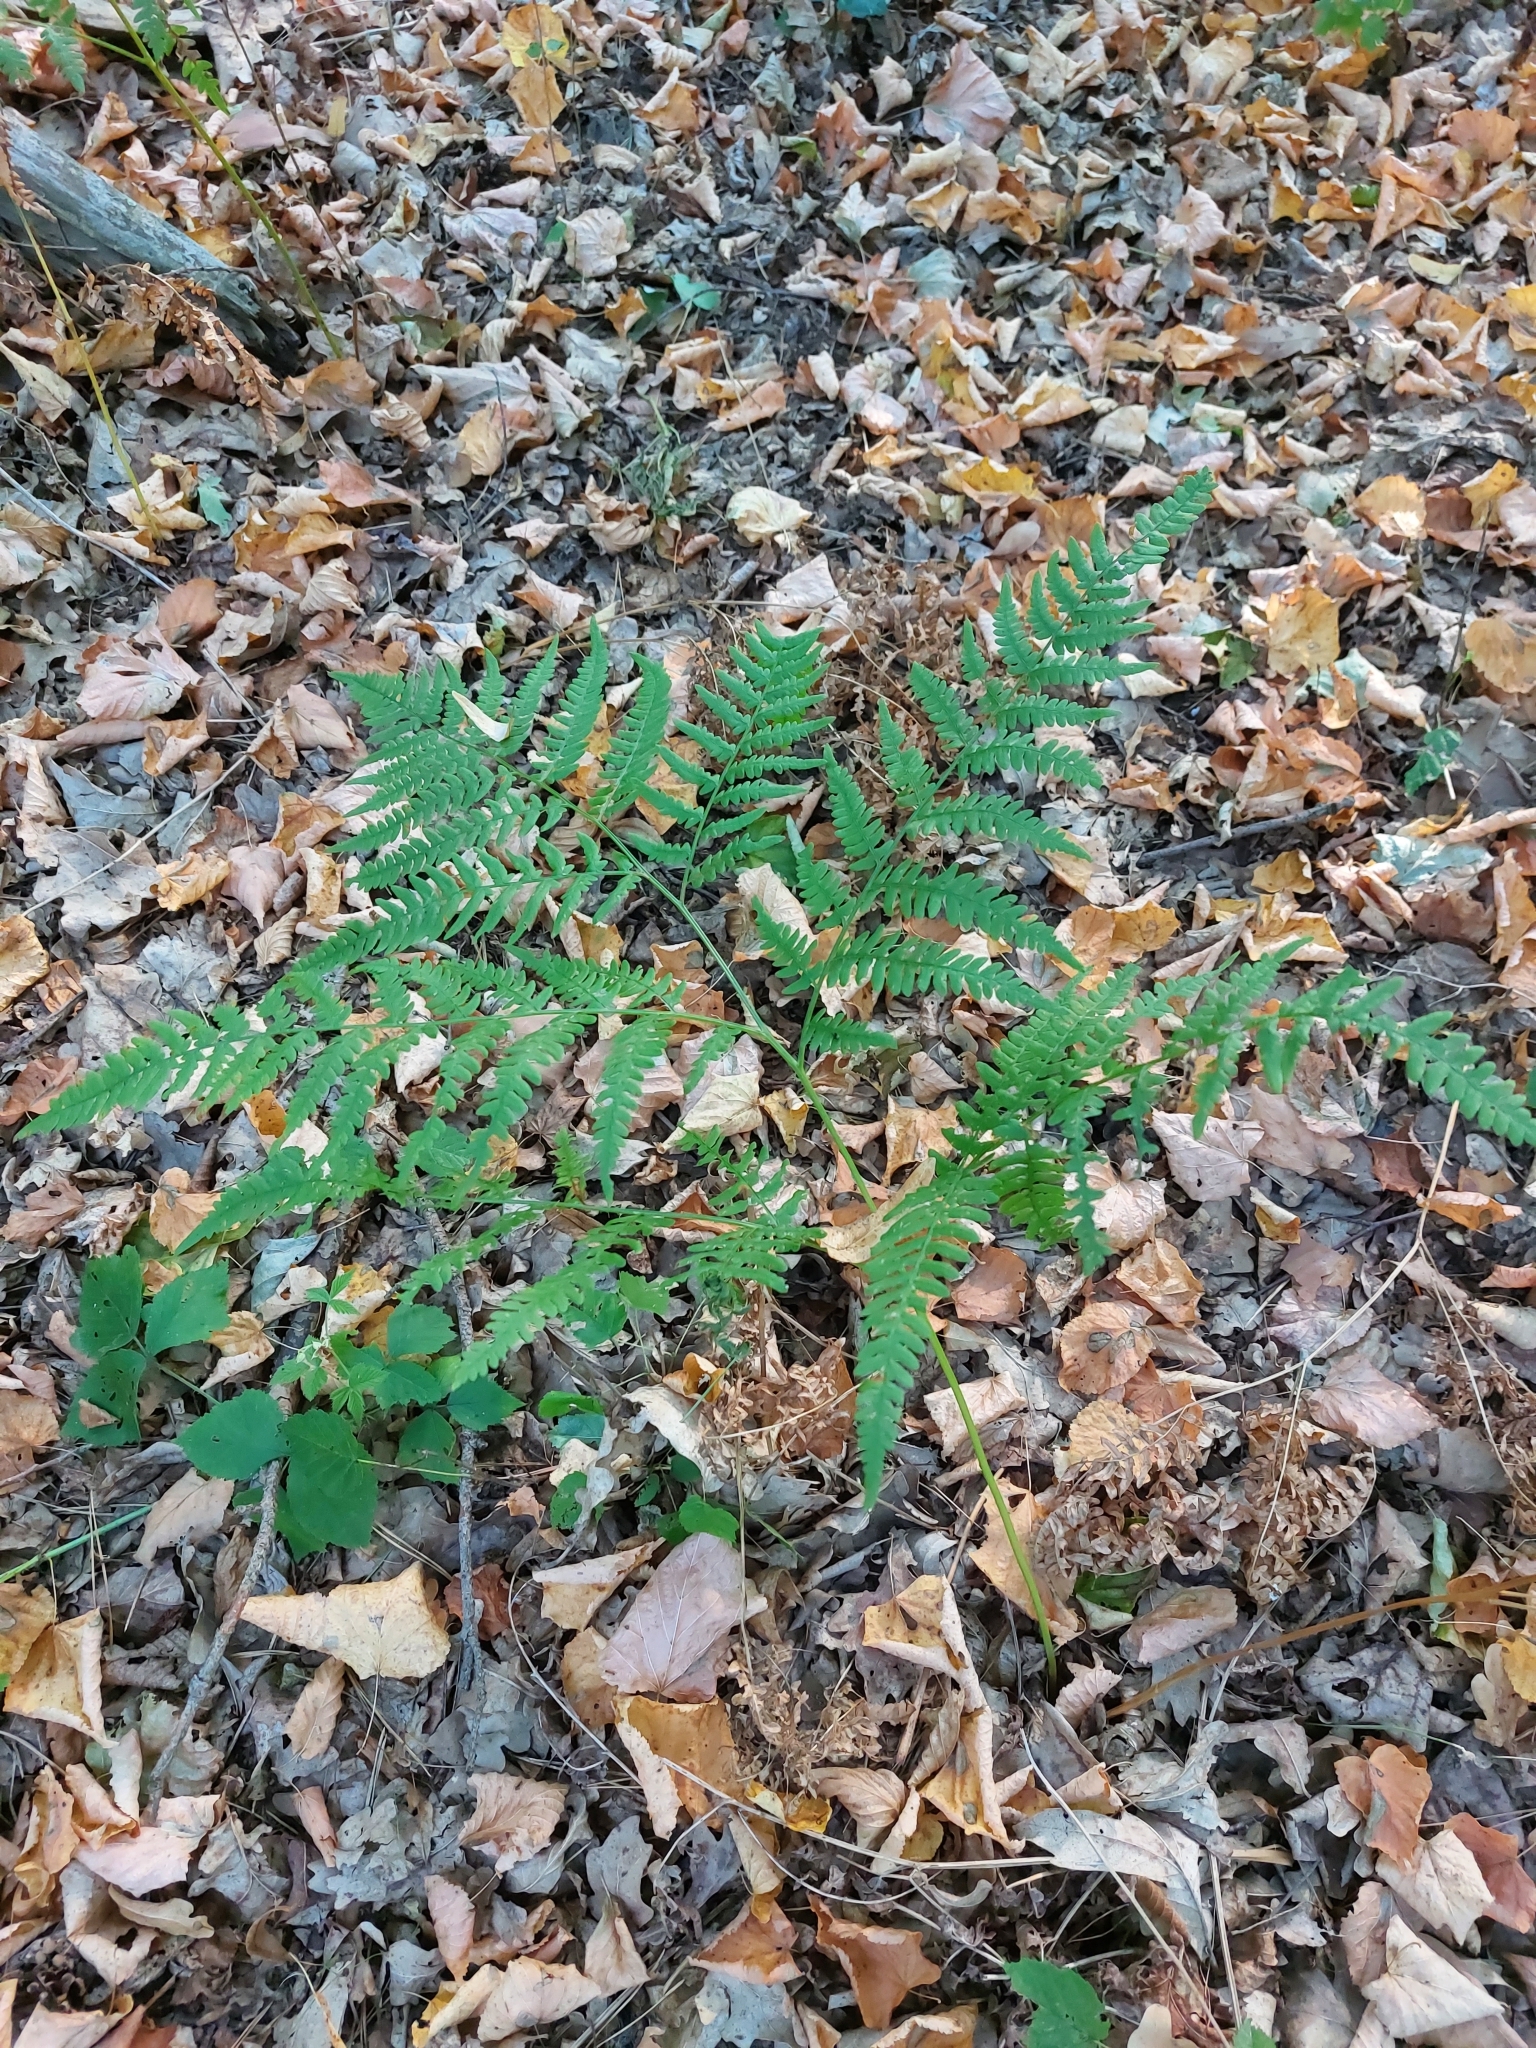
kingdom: Plantae
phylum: Tracheophyta
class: Polypodiopsida
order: Polypodiales
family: Dennstaedtiaceae
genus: Pteridium
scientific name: Pteridium aquilinum
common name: Bracken
